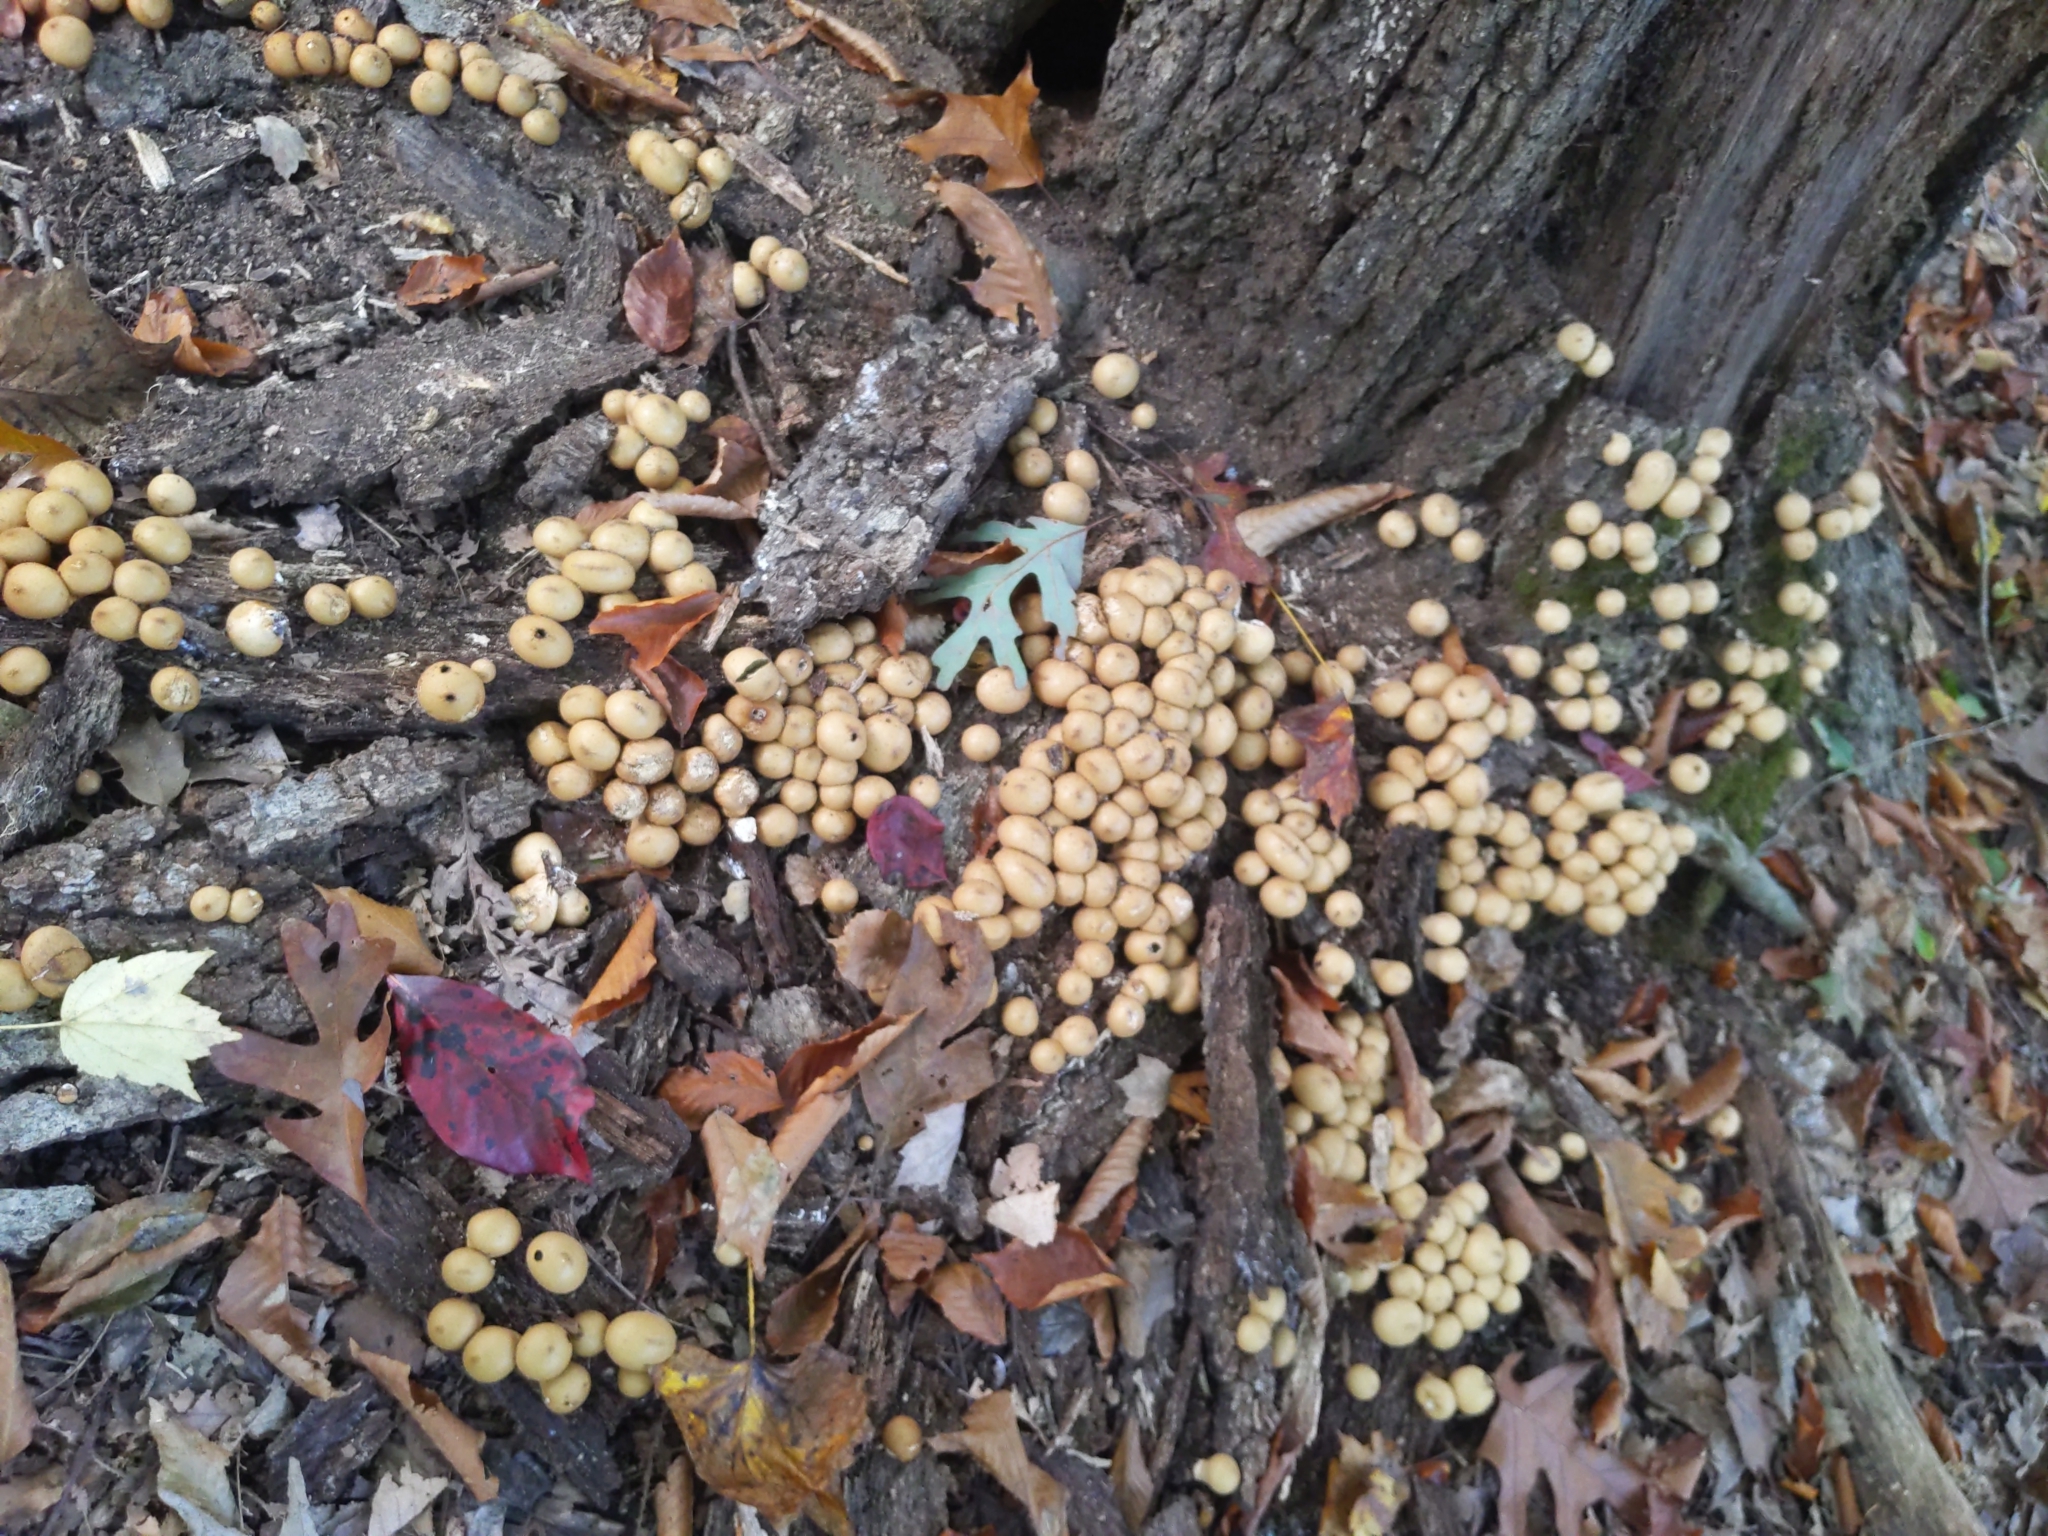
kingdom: Fungi
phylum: Basidiomycota
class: Agaricomycetes
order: Agaricales
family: Lycoperdaceae
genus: Apioperdon
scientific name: Apioperdon pyriforme
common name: Pear-shaped puffball
